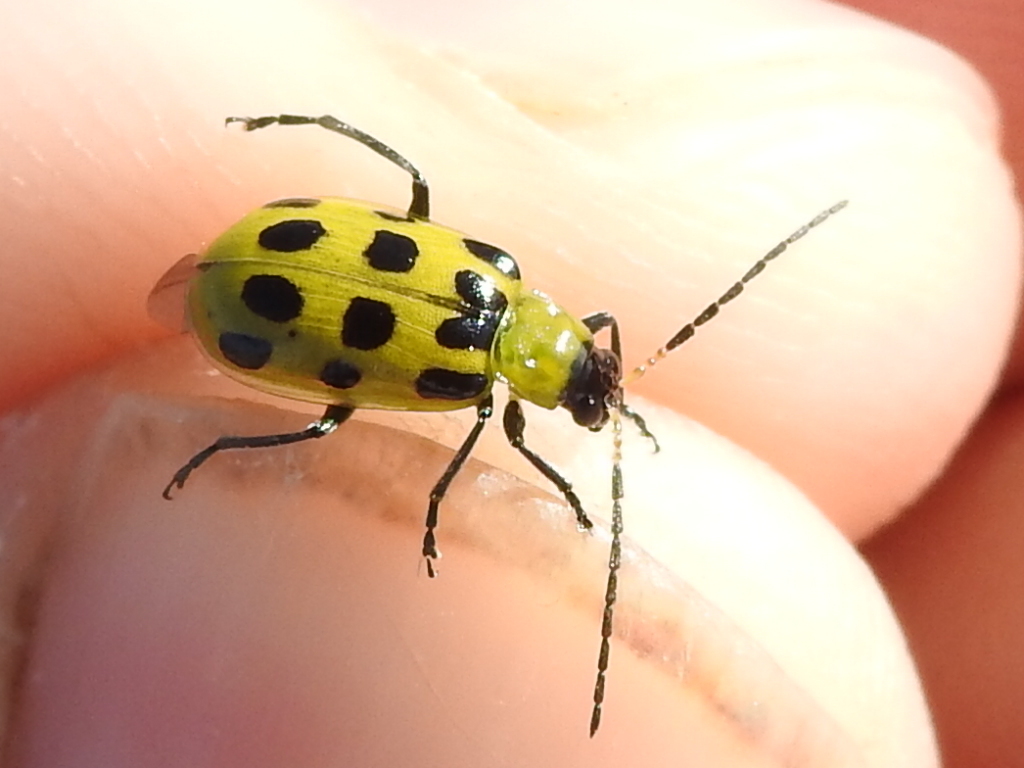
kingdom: Animalia
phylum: Arthropoda
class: Insecta
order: Coleoptera
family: Chrysomelidae
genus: Diabrotica
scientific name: Diabrotica undecimpunctata
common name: Spotted cucumber beetle
